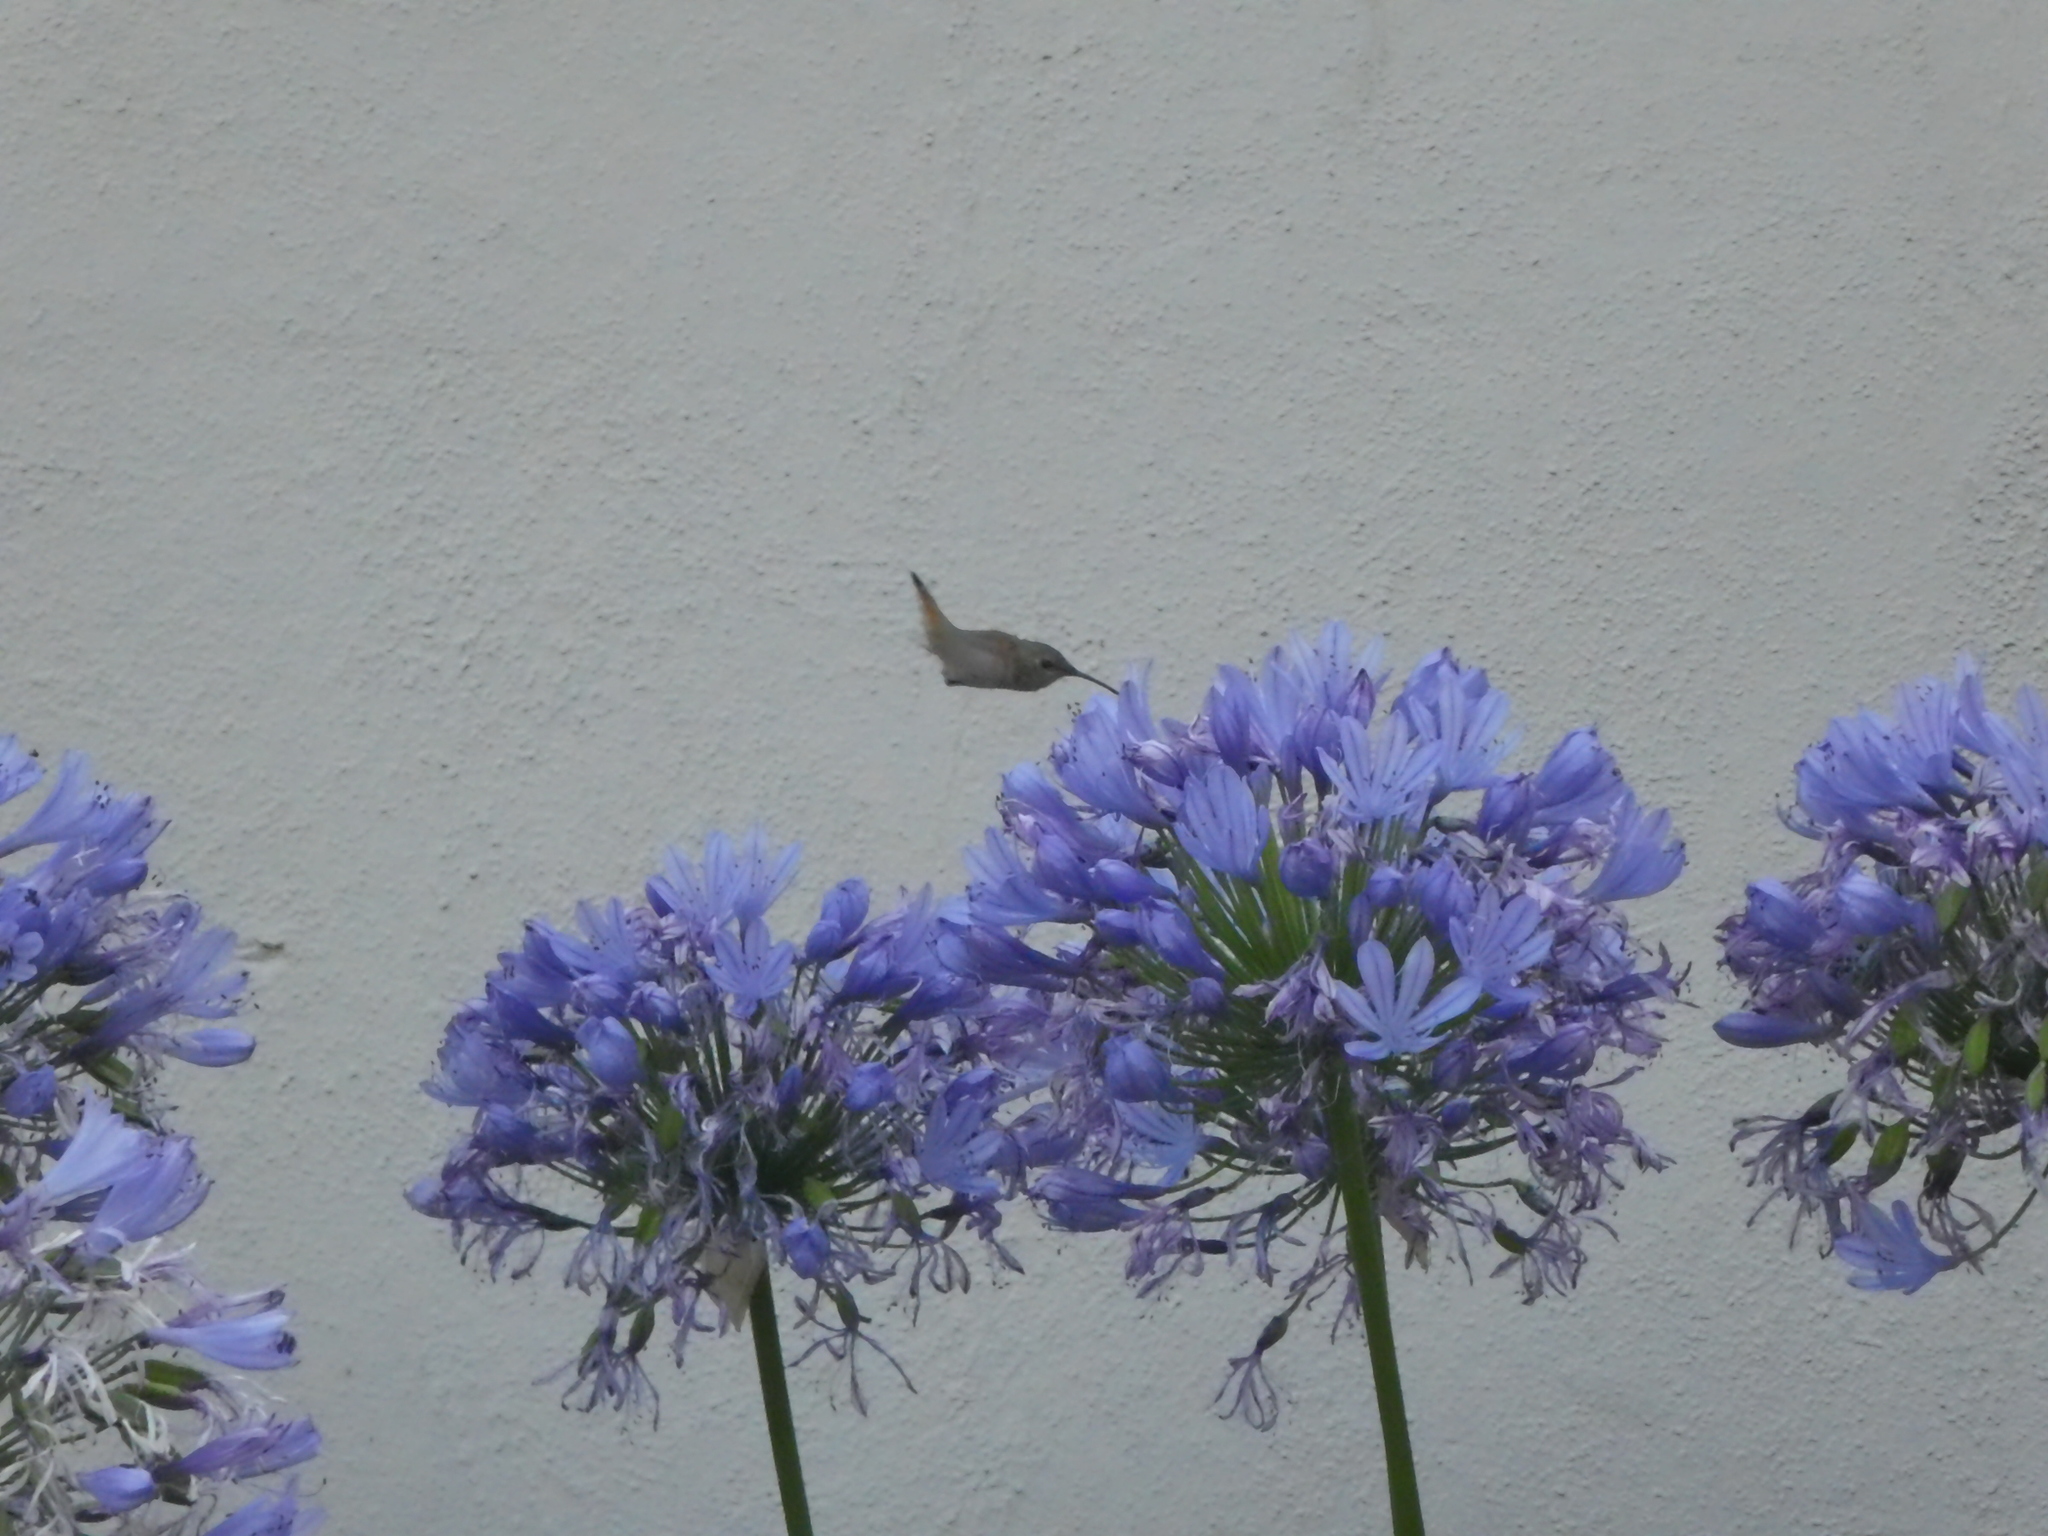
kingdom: Animalia
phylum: Chordata
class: Aves
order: Apodiformes
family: Trochilidae
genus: Selasphorus
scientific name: Selasphorus
